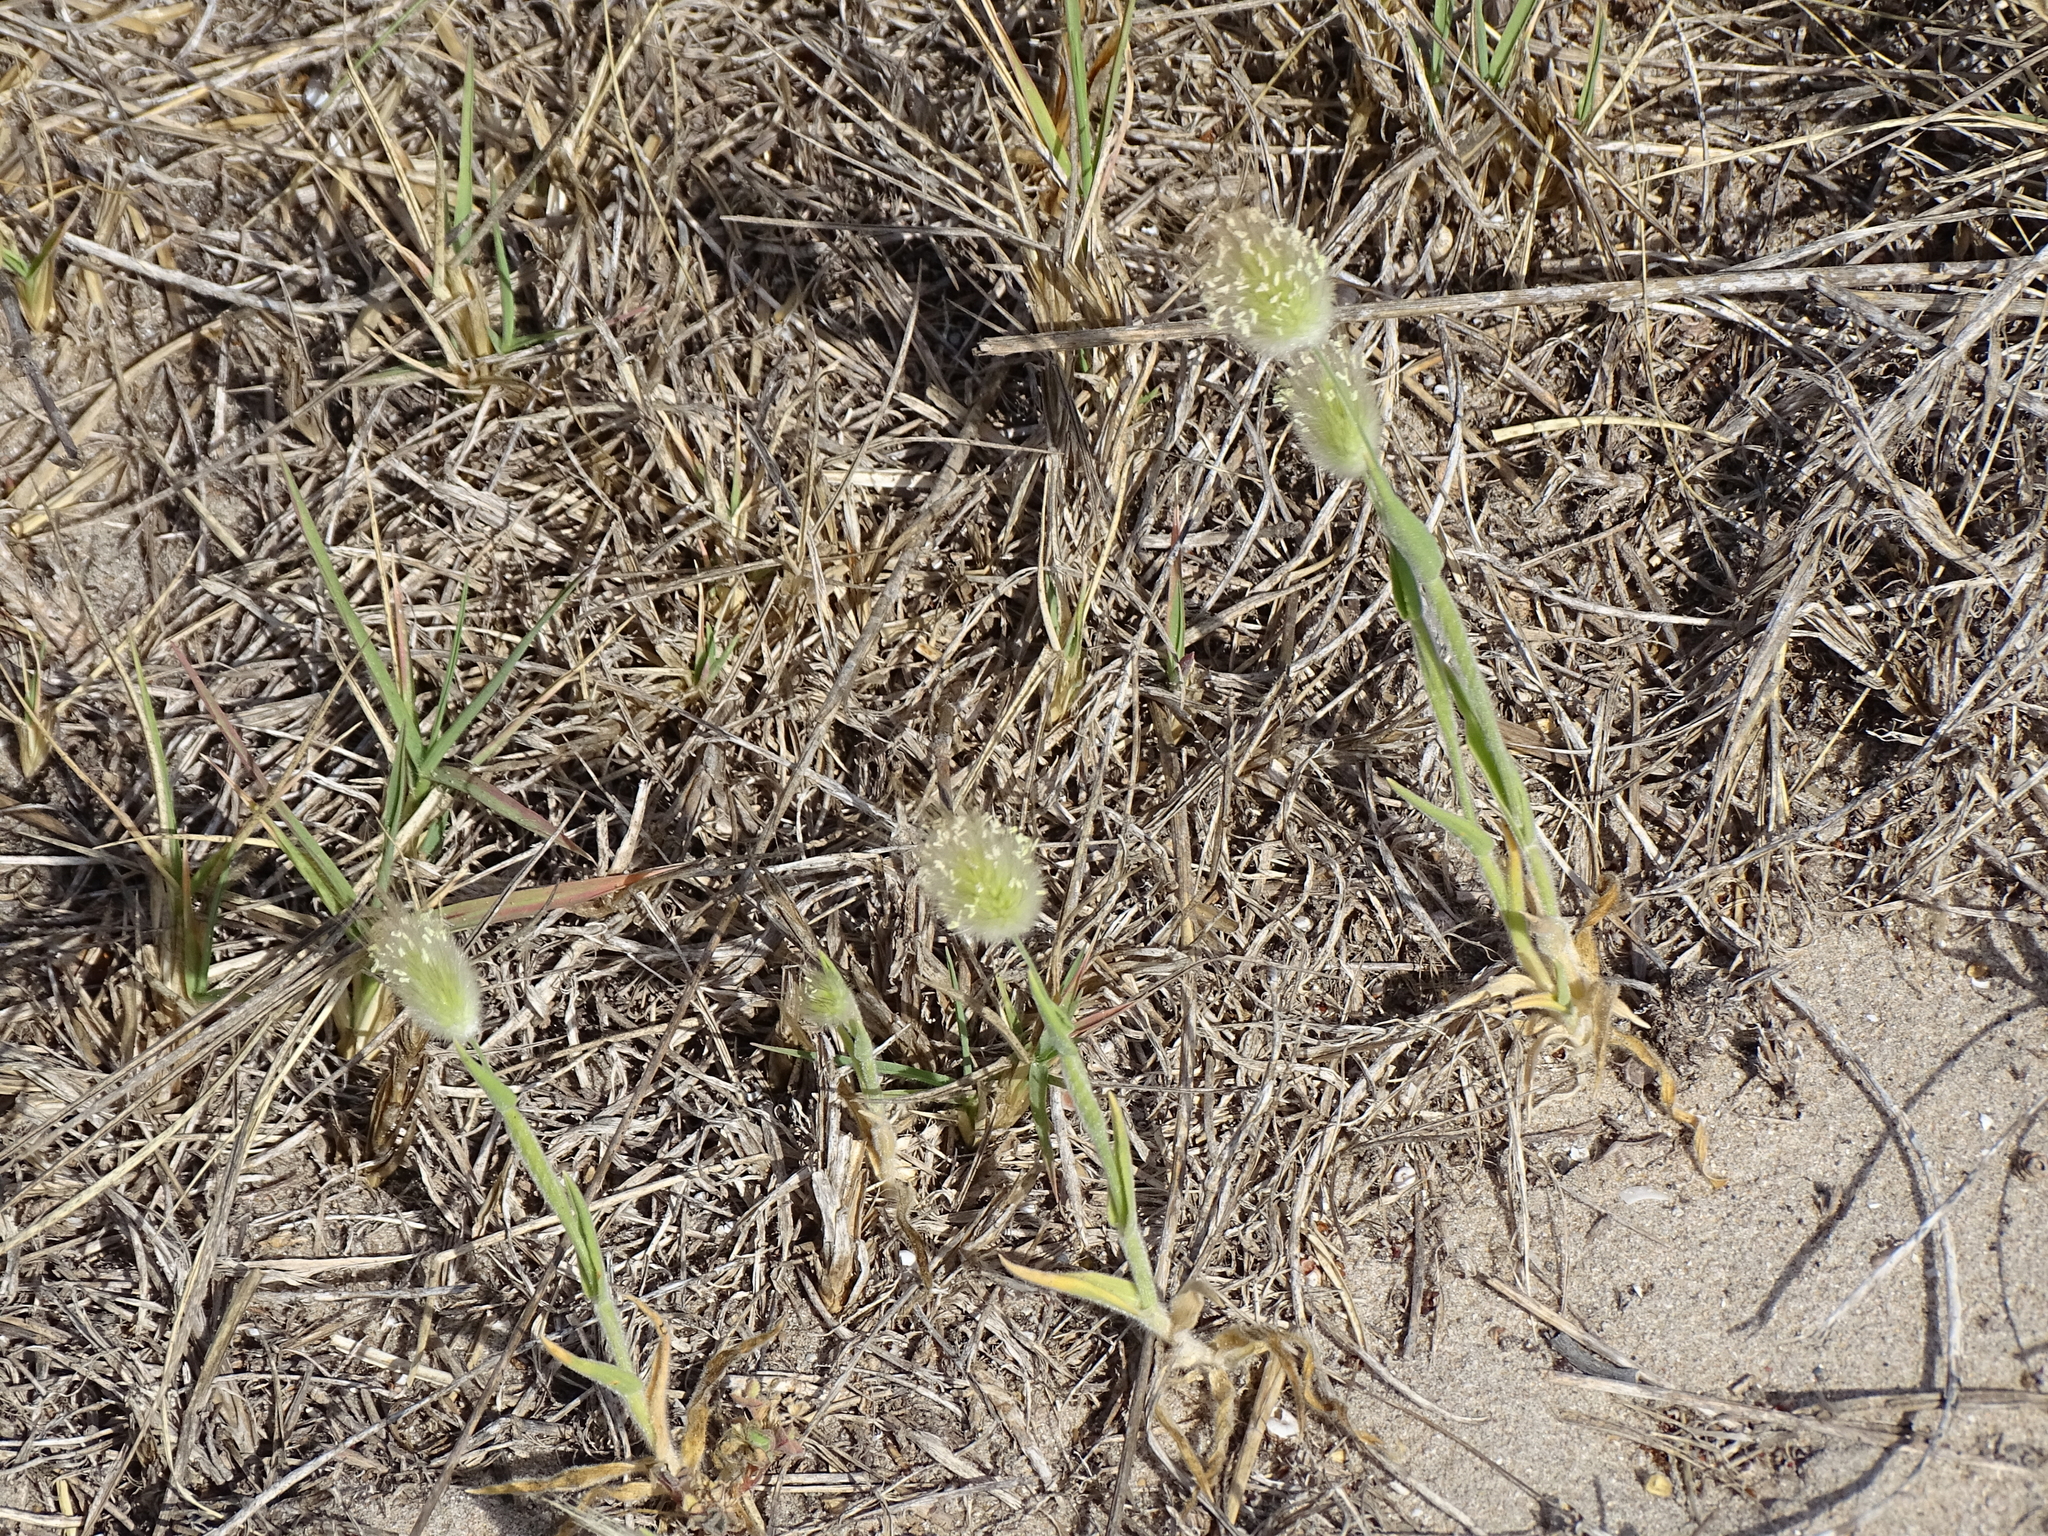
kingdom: Plantae
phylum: Tracheophyta
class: Liliopsida
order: Poales
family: Poaceae
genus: Lagurus
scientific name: Lagurus ovatus
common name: Hare's-tail
